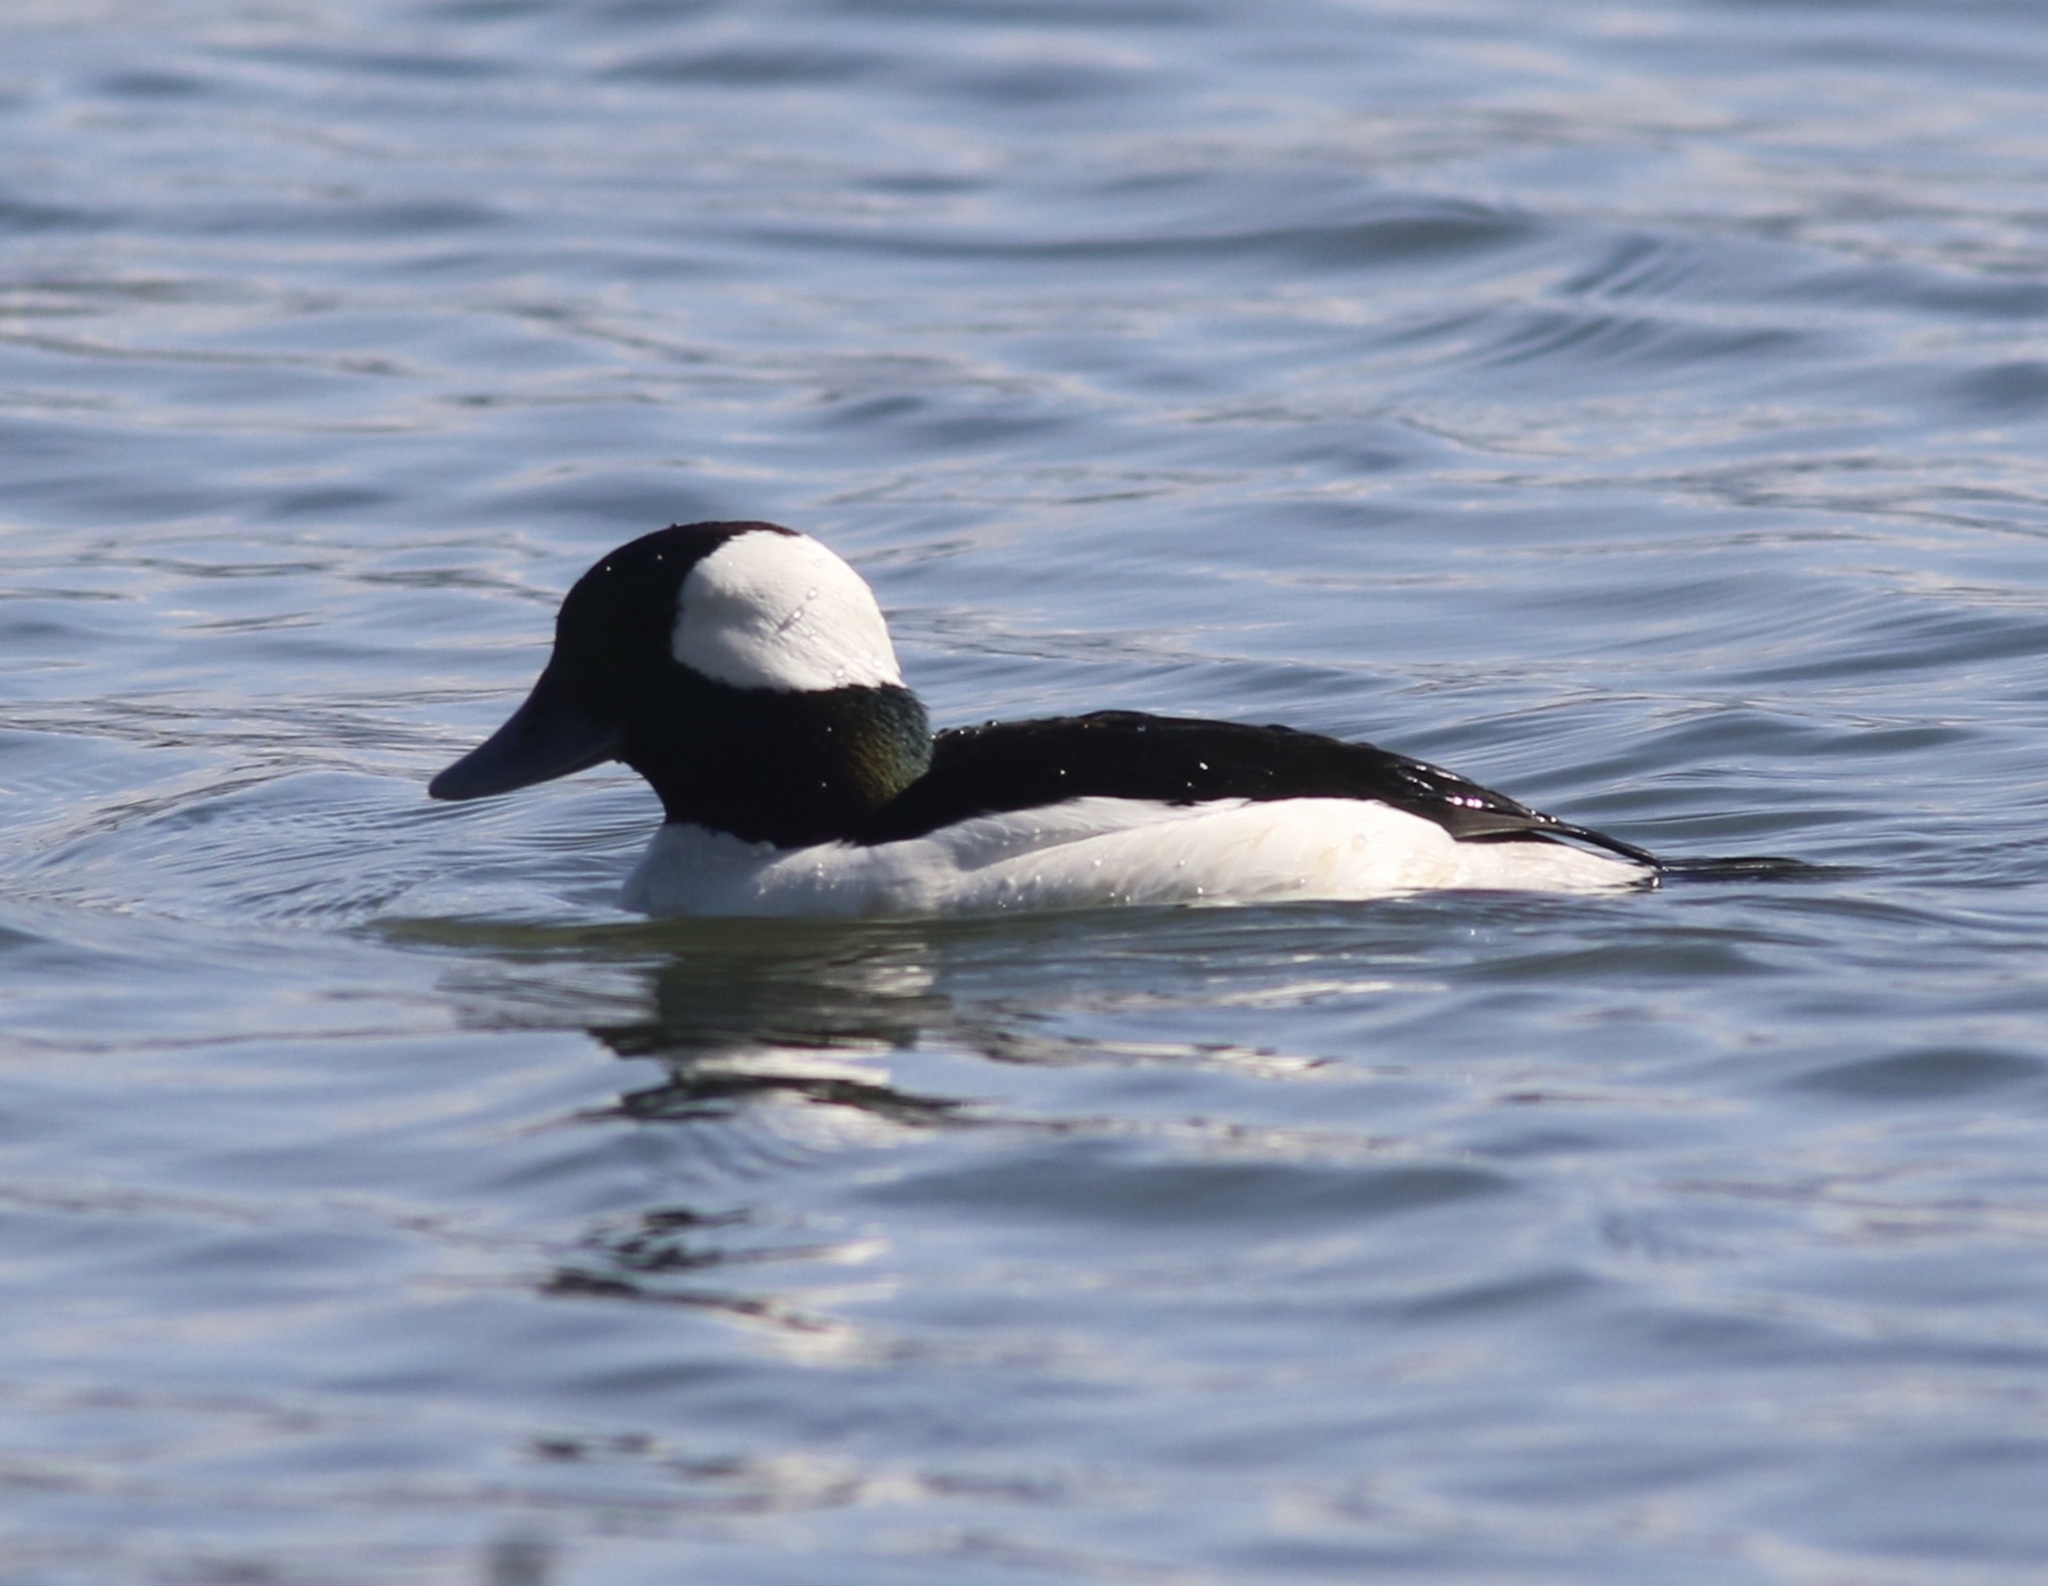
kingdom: Animalia
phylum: Chordata
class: Aves
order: Anseriformes
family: Anatidae
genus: Bucephala
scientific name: Bucephala albeola
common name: Bufflehead
